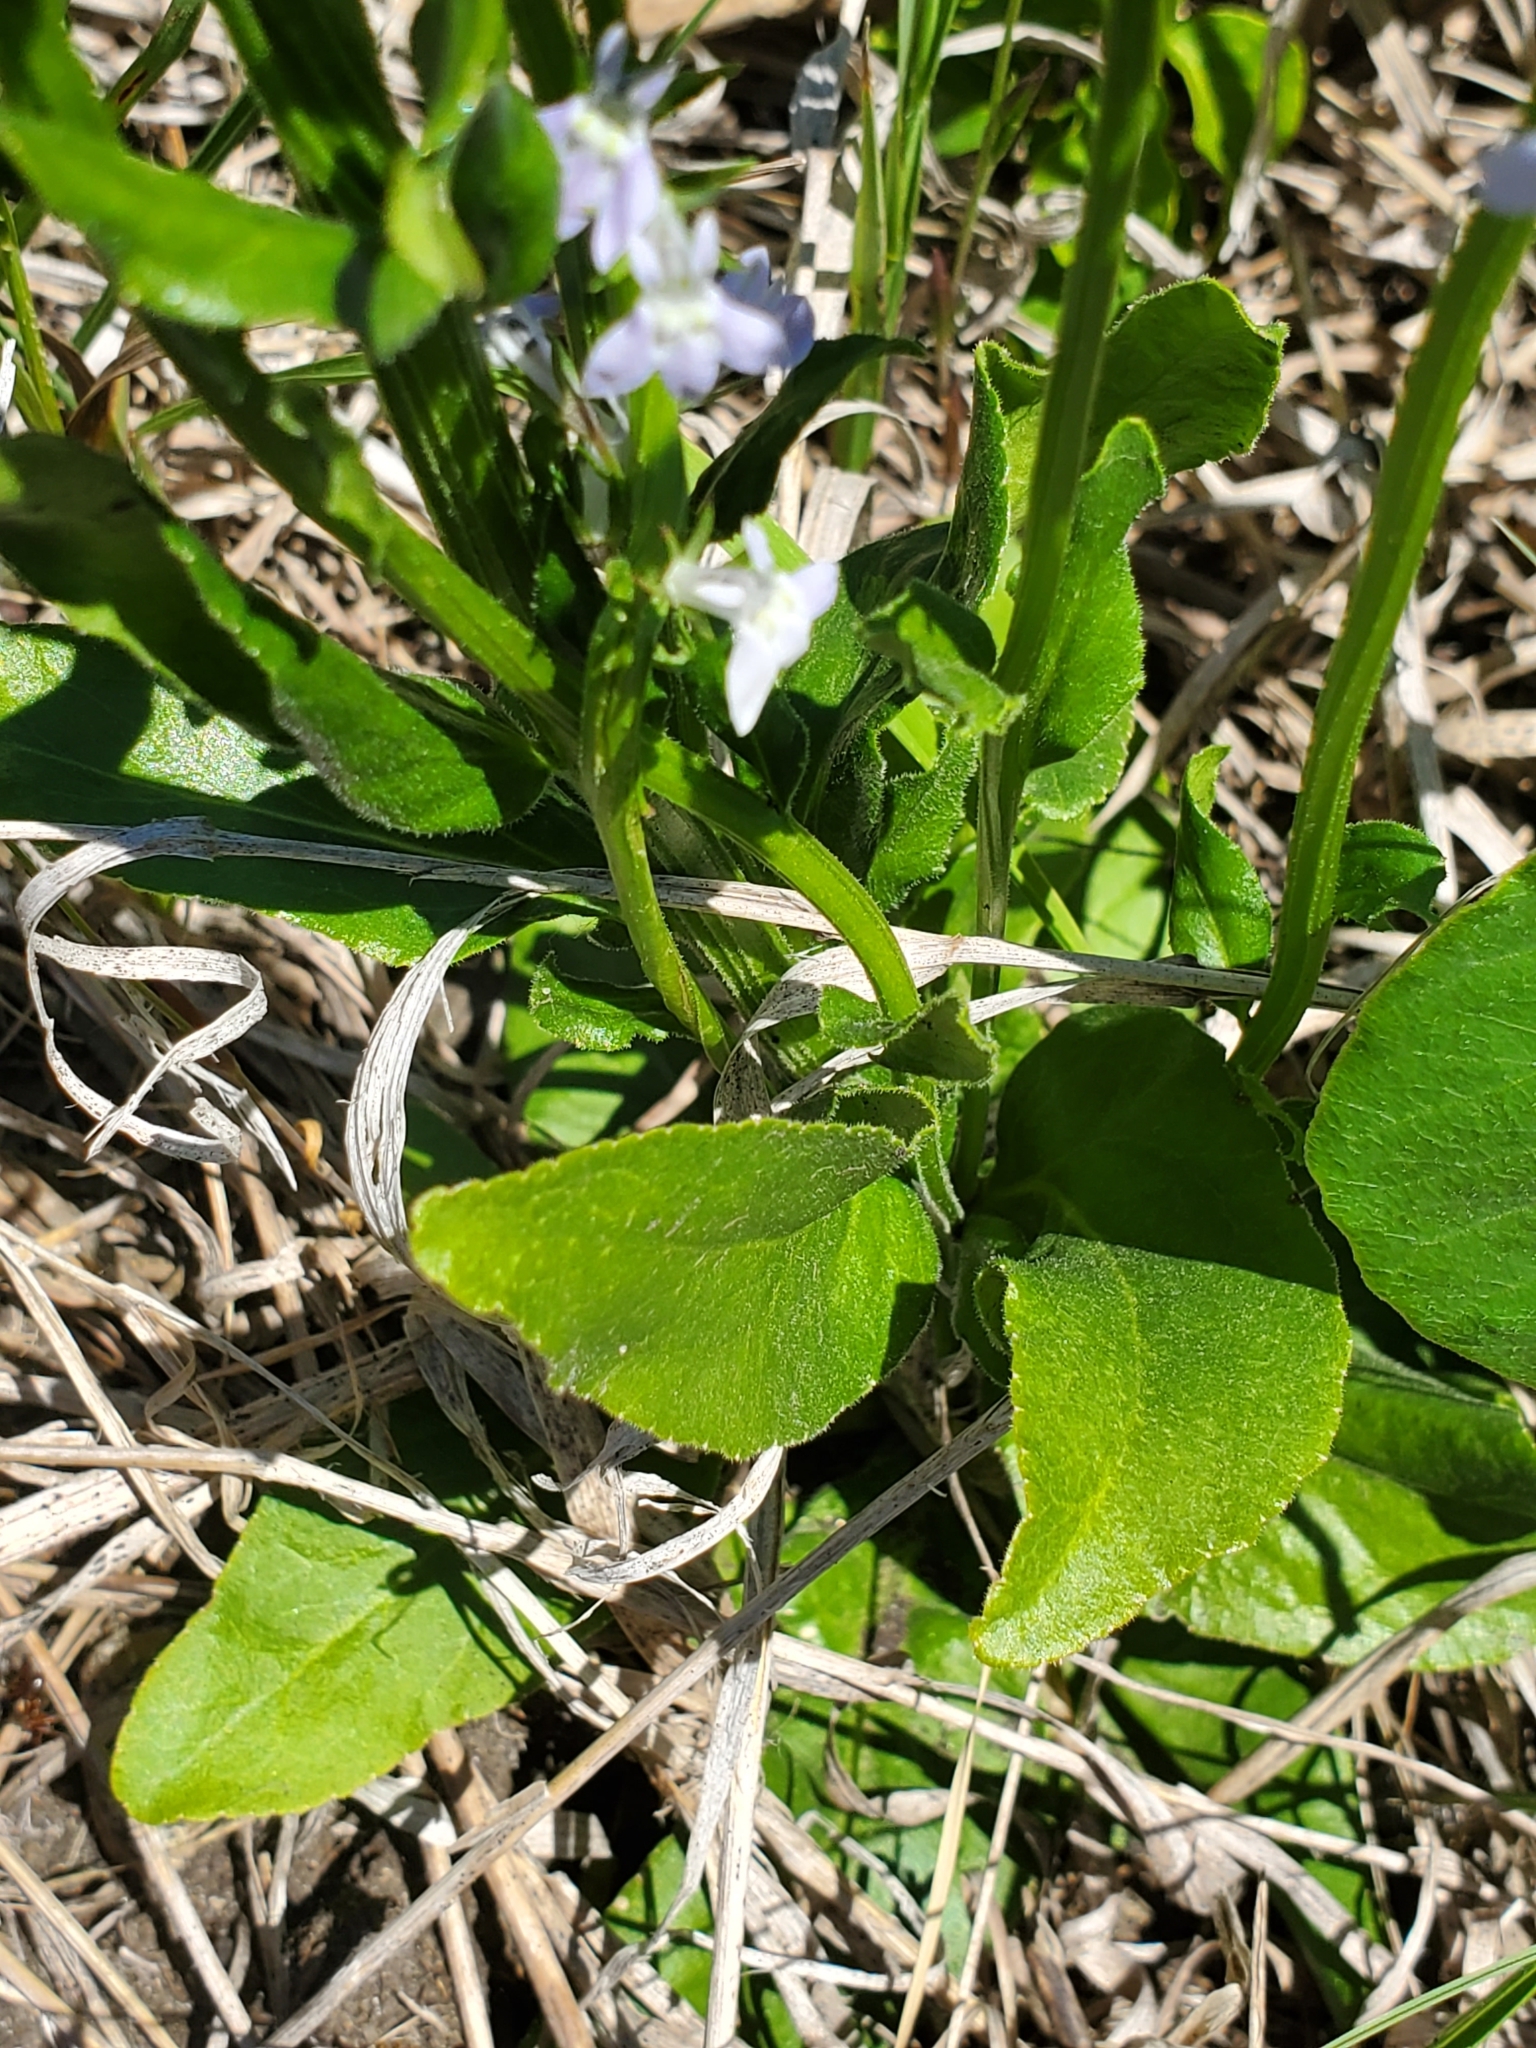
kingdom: Plantae
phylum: Tracheophyta
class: Magnoliopsida
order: Asterales
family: Campanulaceae
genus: Lobelia
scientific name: Lobelia spicata
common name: Pale-spike lobelia
